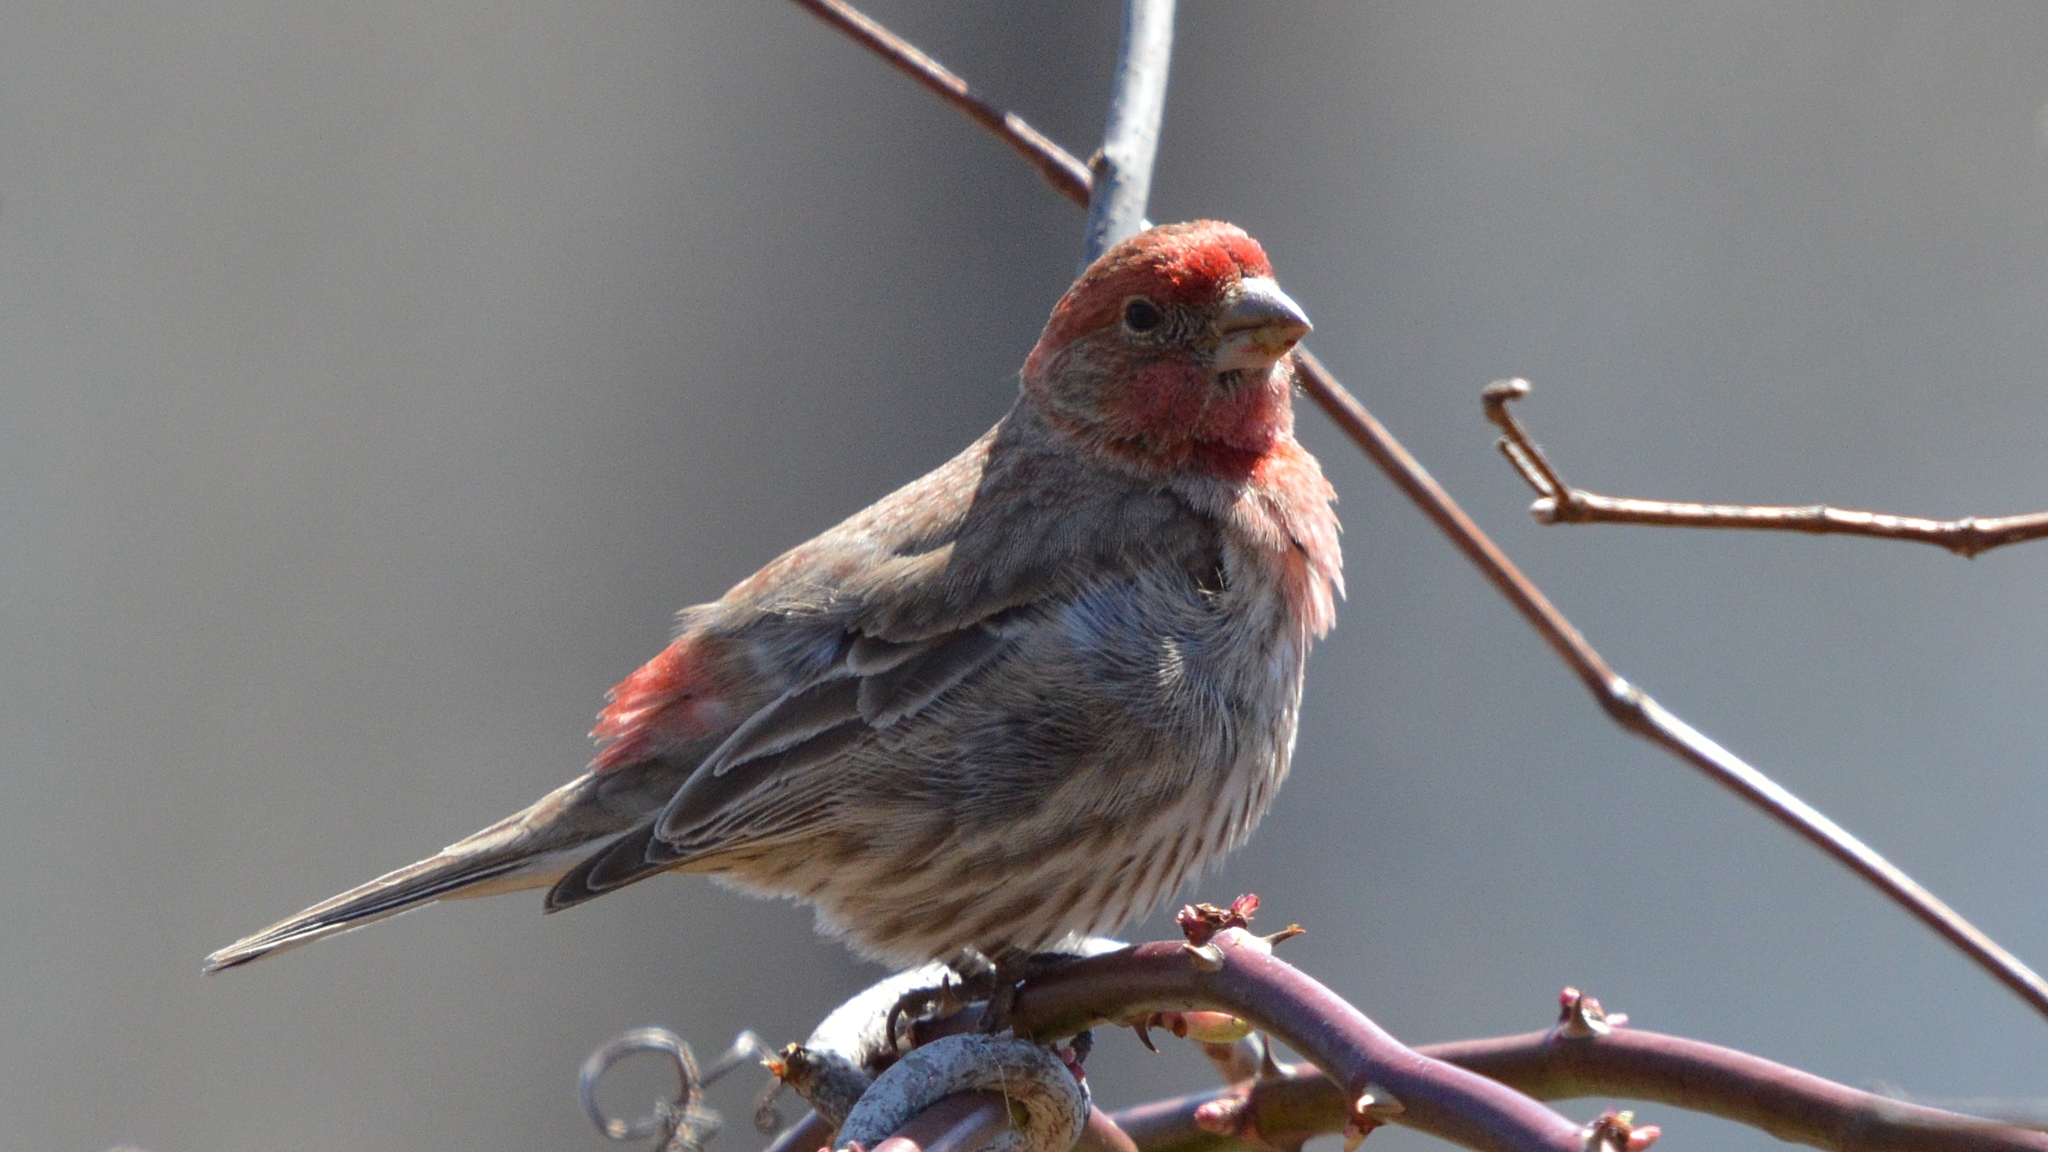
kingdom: Animalia
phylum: Chordata
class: Aves
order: Passeriformes
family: Fringillidae
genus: Haemorhous
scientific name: Haemorhous mexicanus
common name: House finch
